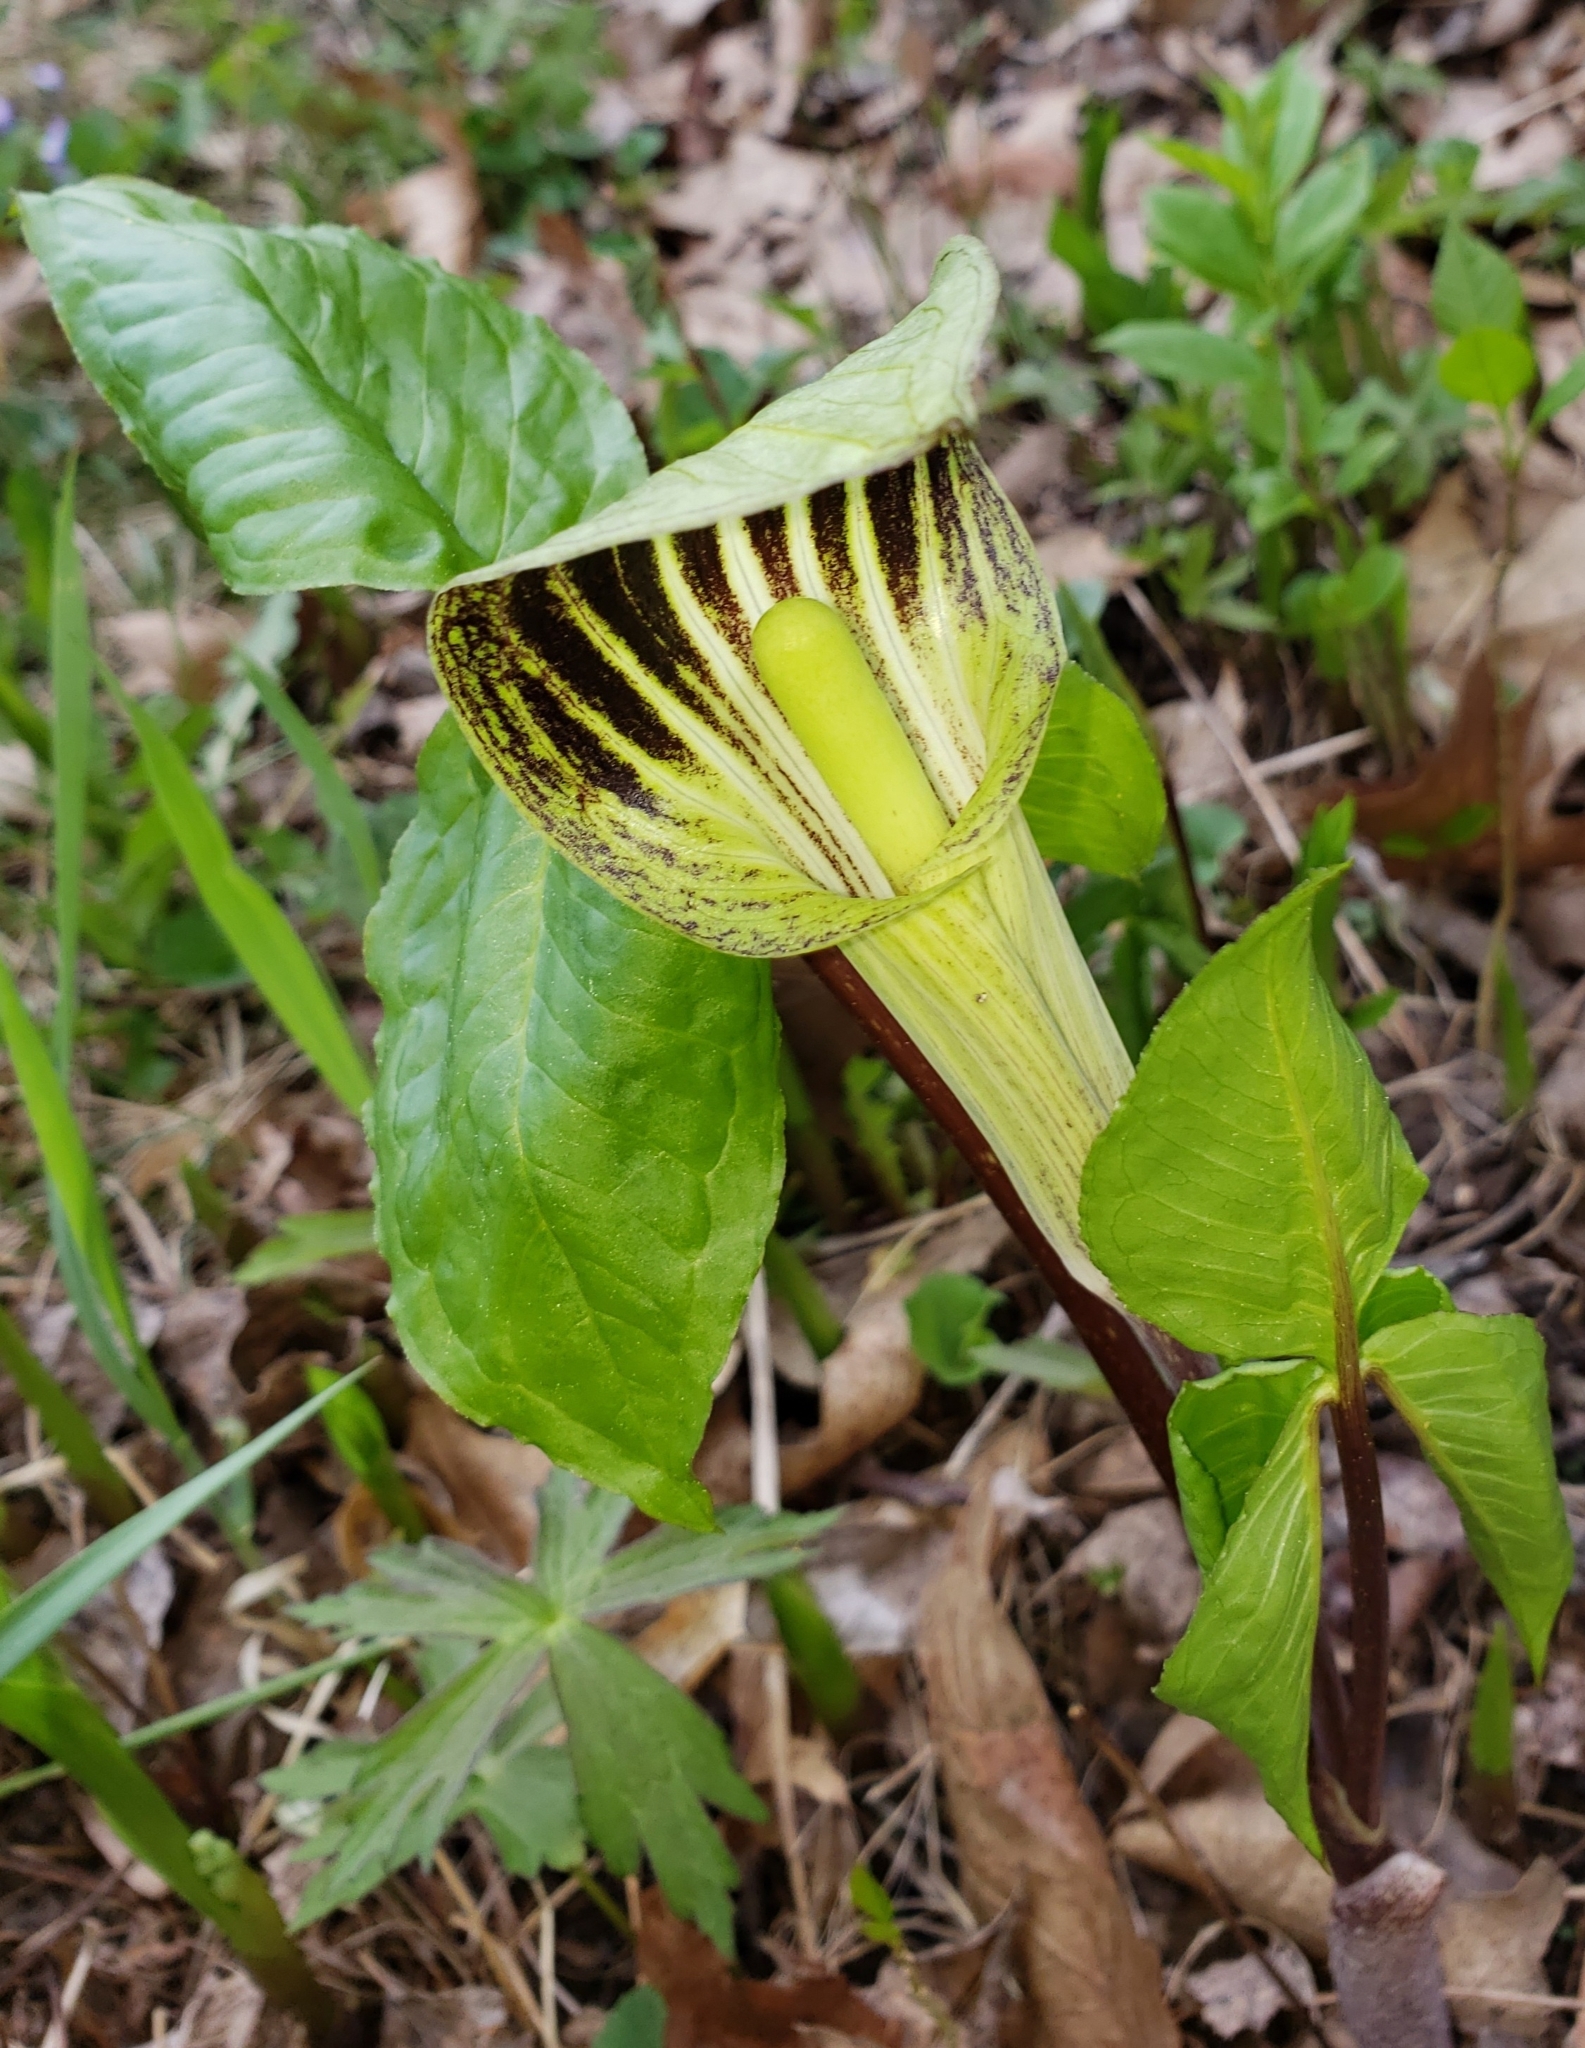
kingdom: Plantae
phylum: Tracheophyta
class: Liliopsida
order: Alismatales
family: Araceae
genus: Arisaema
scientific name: Arisaema triphyllum
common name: Jack-in-the-pulpit
